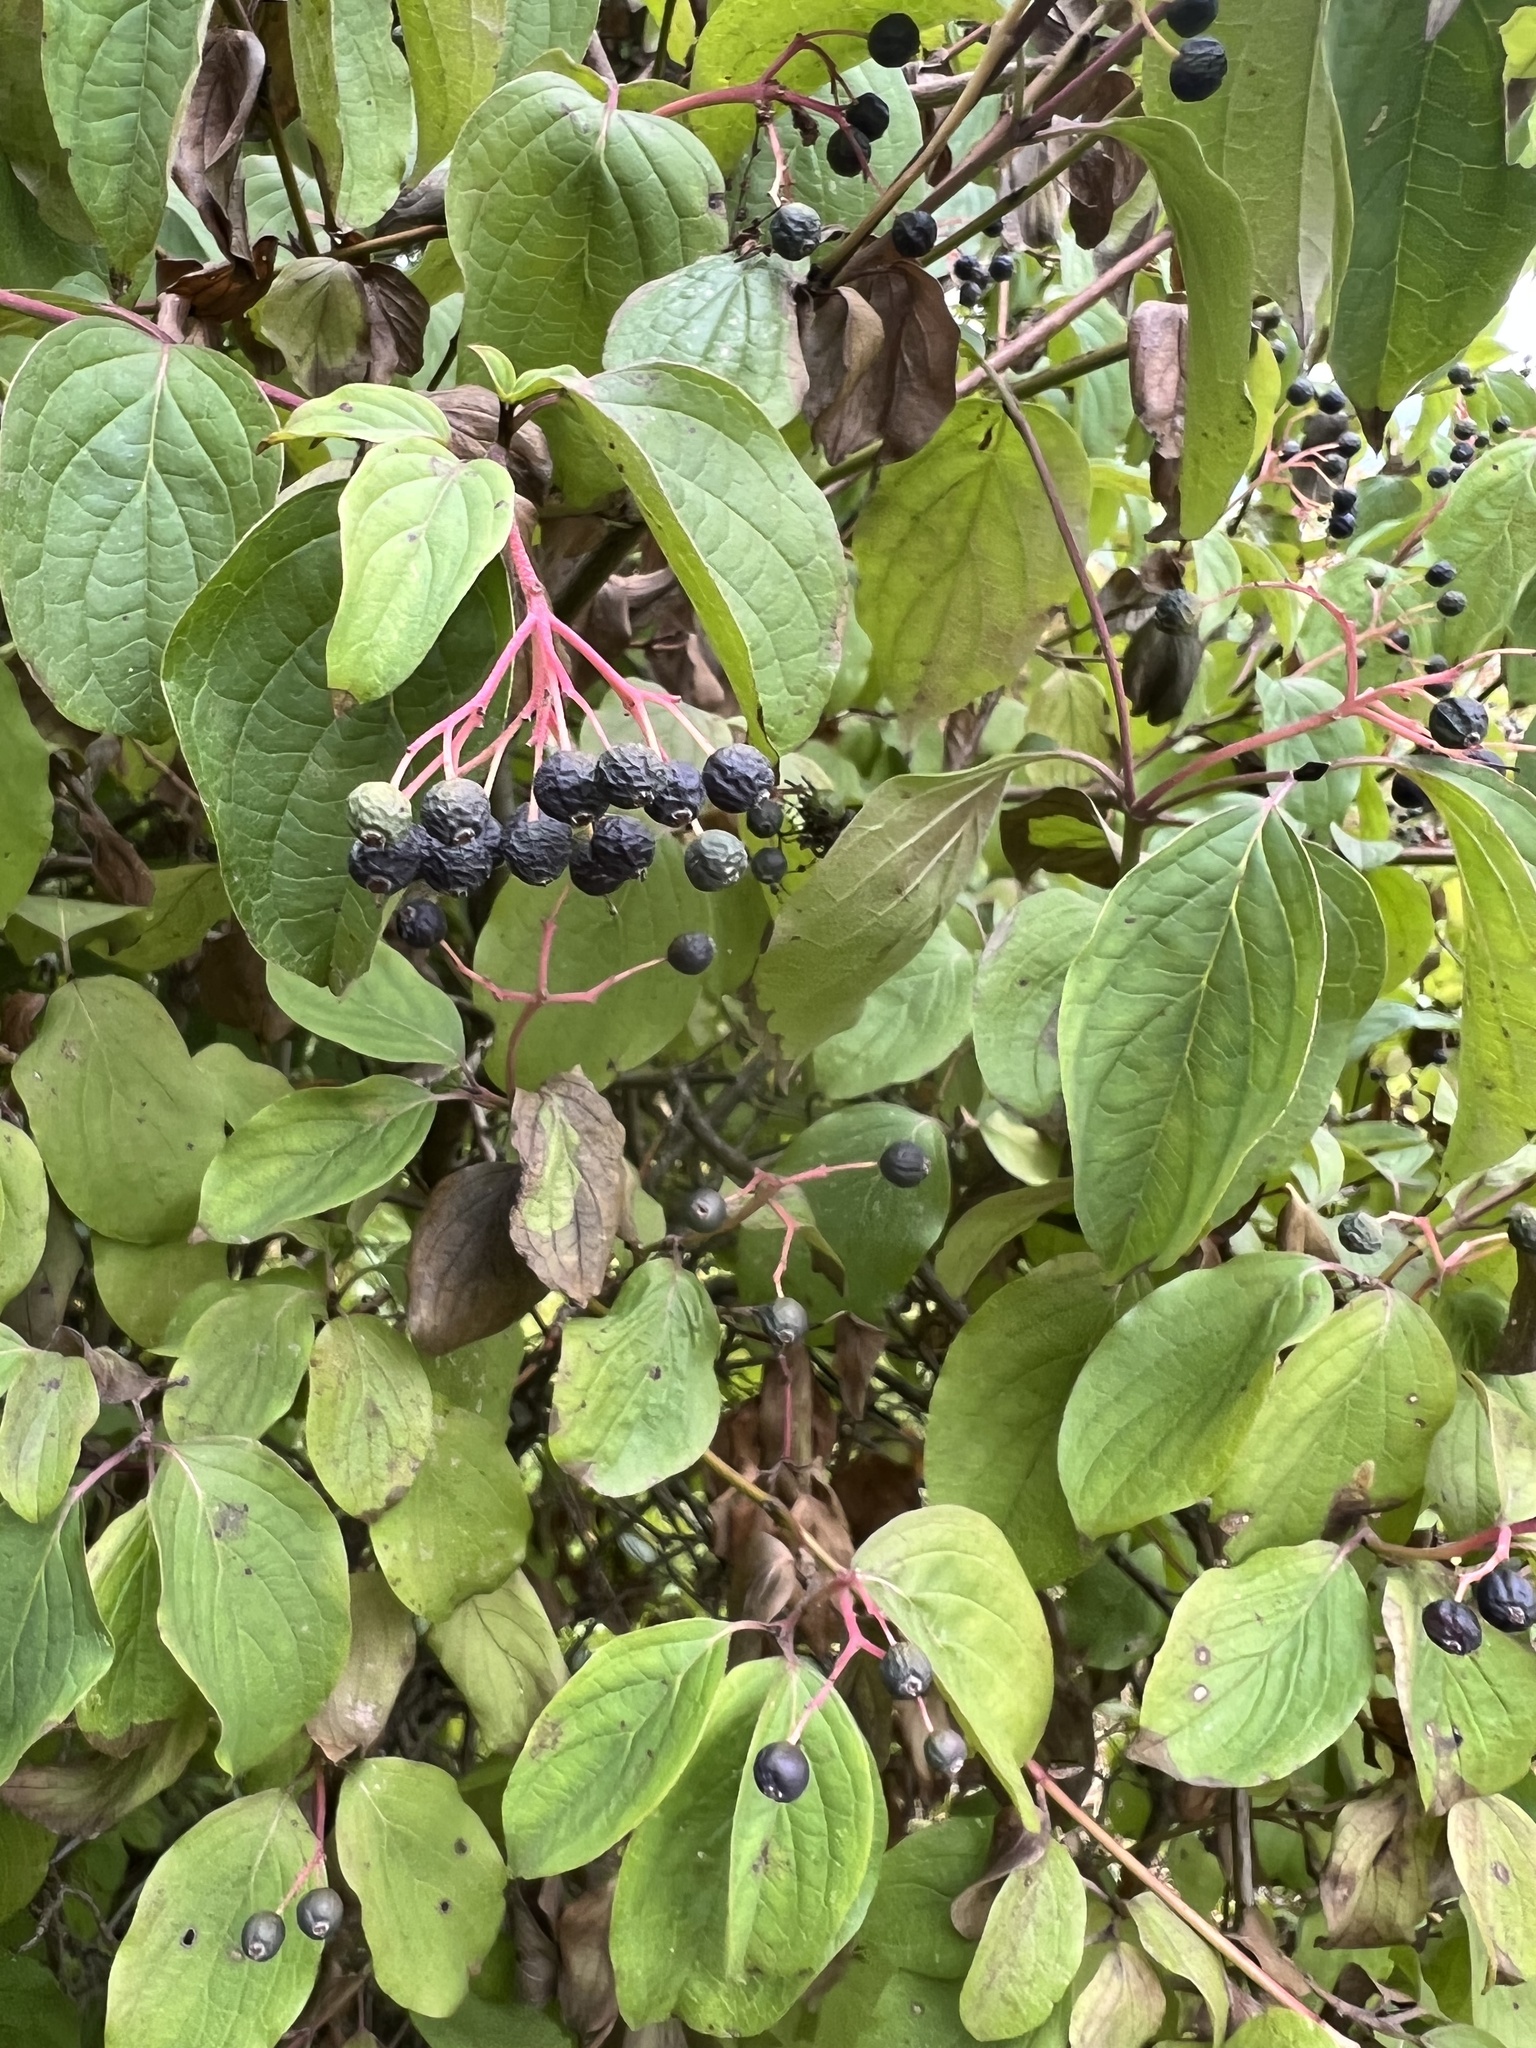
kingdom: Plantae
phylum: Tracheophyta
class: Magnoliopsida
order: Cornales
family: Cornaceae
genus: Cornus
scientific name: Cornus sanguinea
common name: Dogwood
